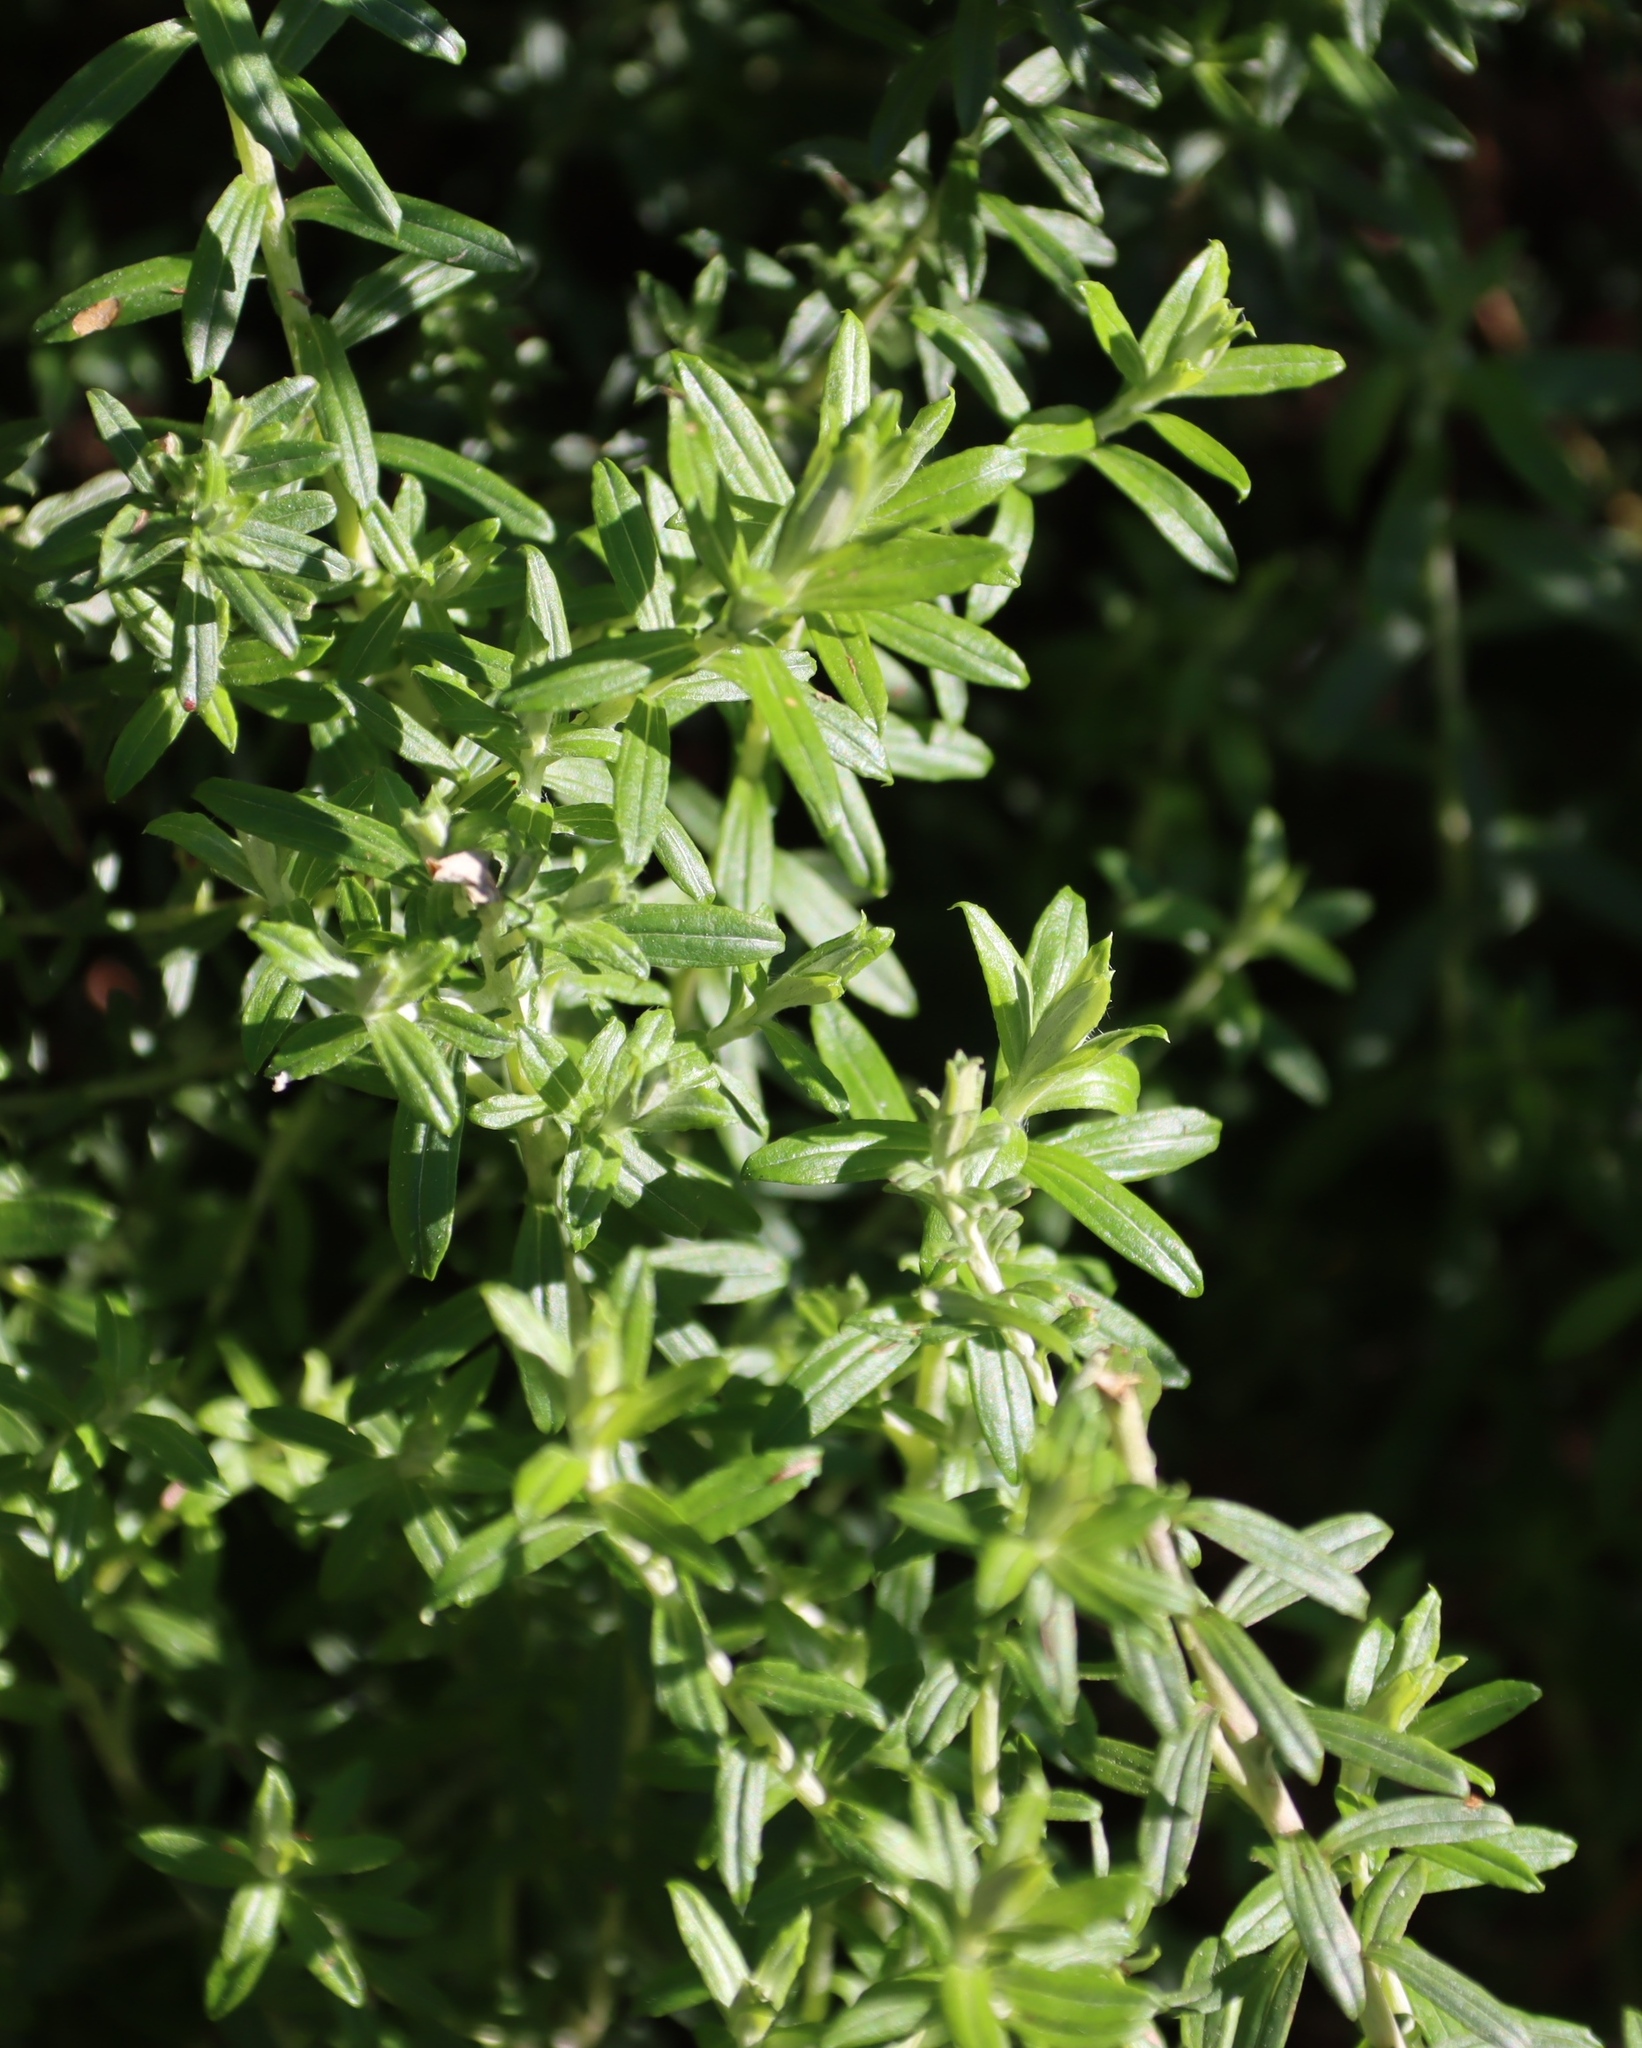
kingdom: Plantae
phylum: Tracheophyta
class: Magnoliopsida
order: Asterales
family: Asteraceae
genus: Helichrysum
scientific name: Helichrysum cymosum
